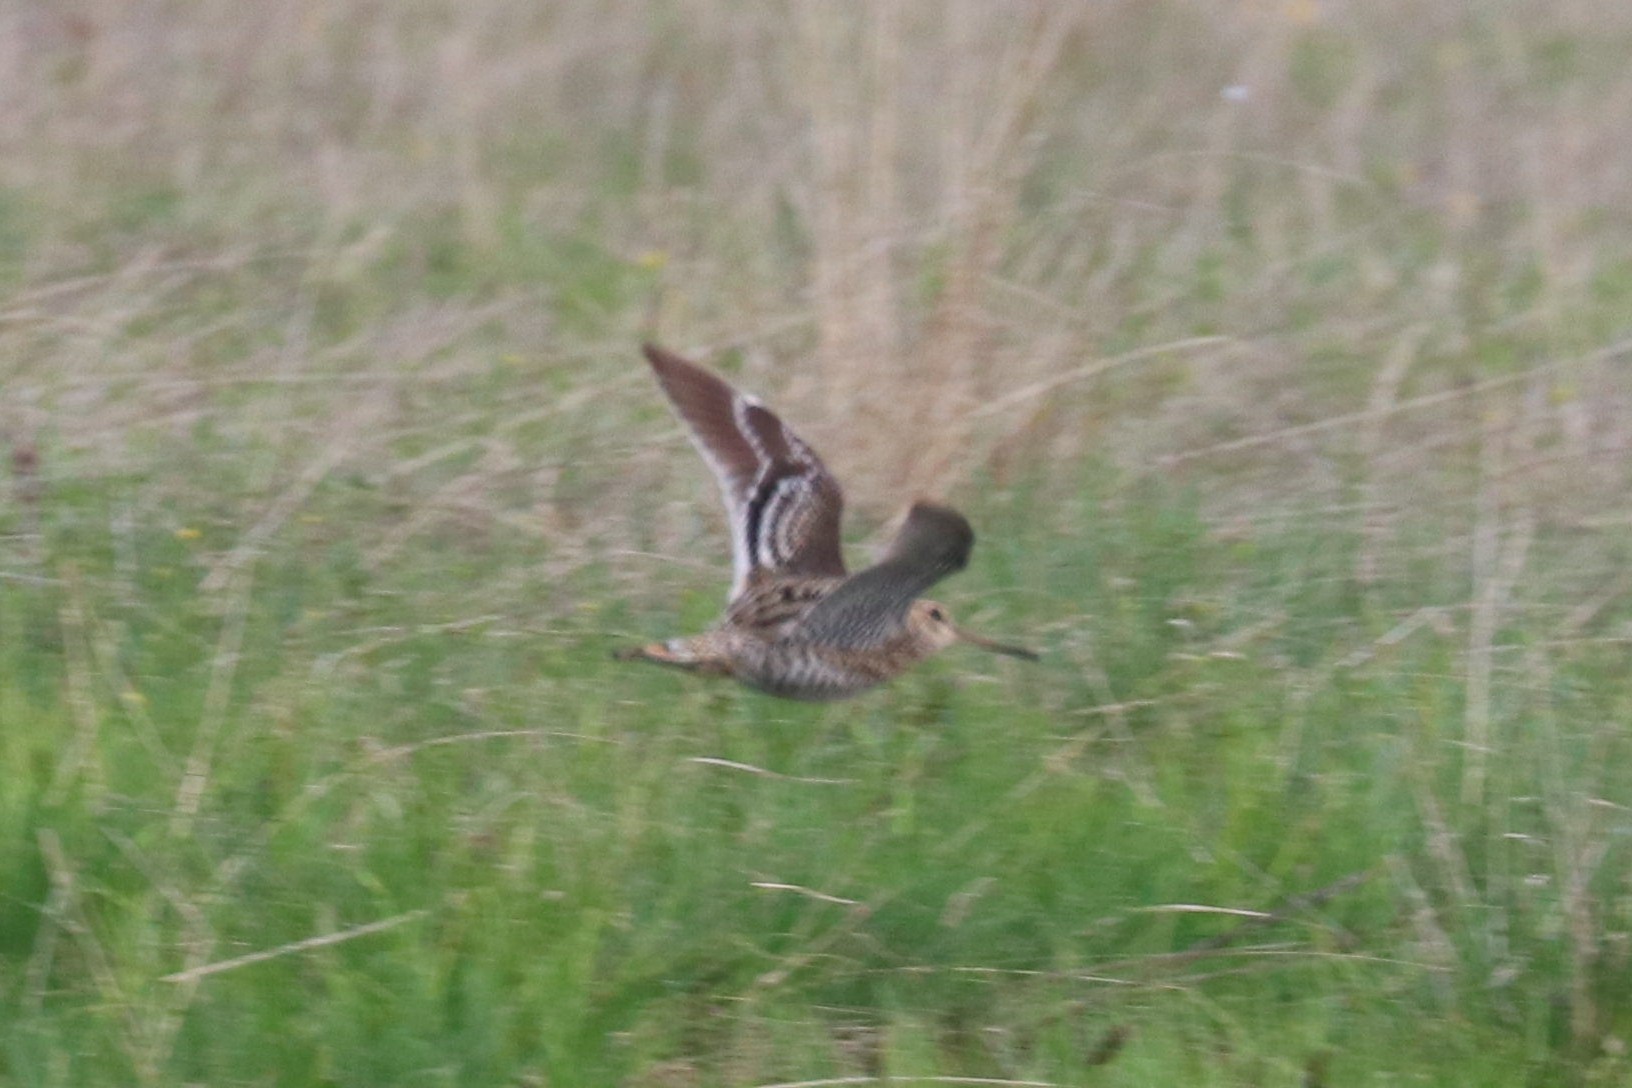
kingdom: Animalia
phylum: Chordata
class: Aves
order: Charadriiformes
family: Scolopacidae
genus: Gallinago
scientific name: Gallinago media
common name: Great snipe
